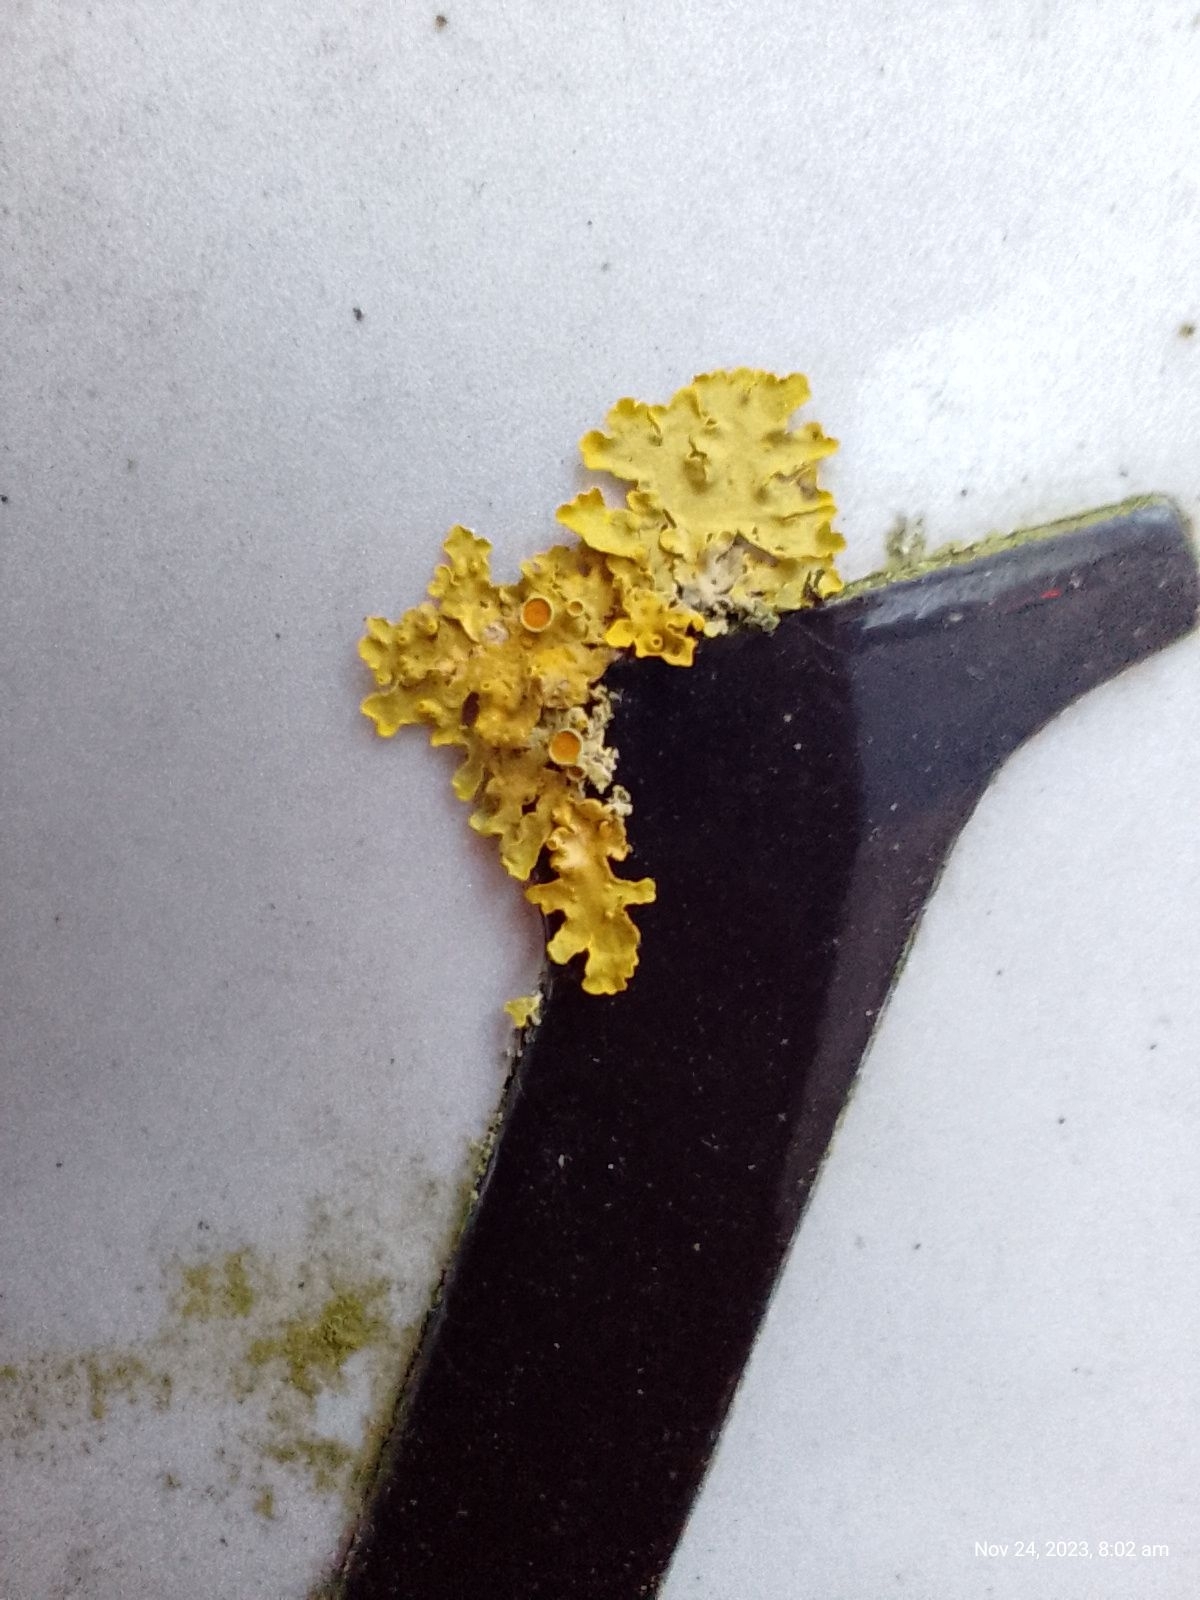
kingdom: Fungi
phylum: Ascomycota
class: Lecanoromycetes
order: Teloschistales
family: Teloschistaceae
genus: Xanthoria
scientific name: Xanthoria parietina
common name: Common orange lichen
